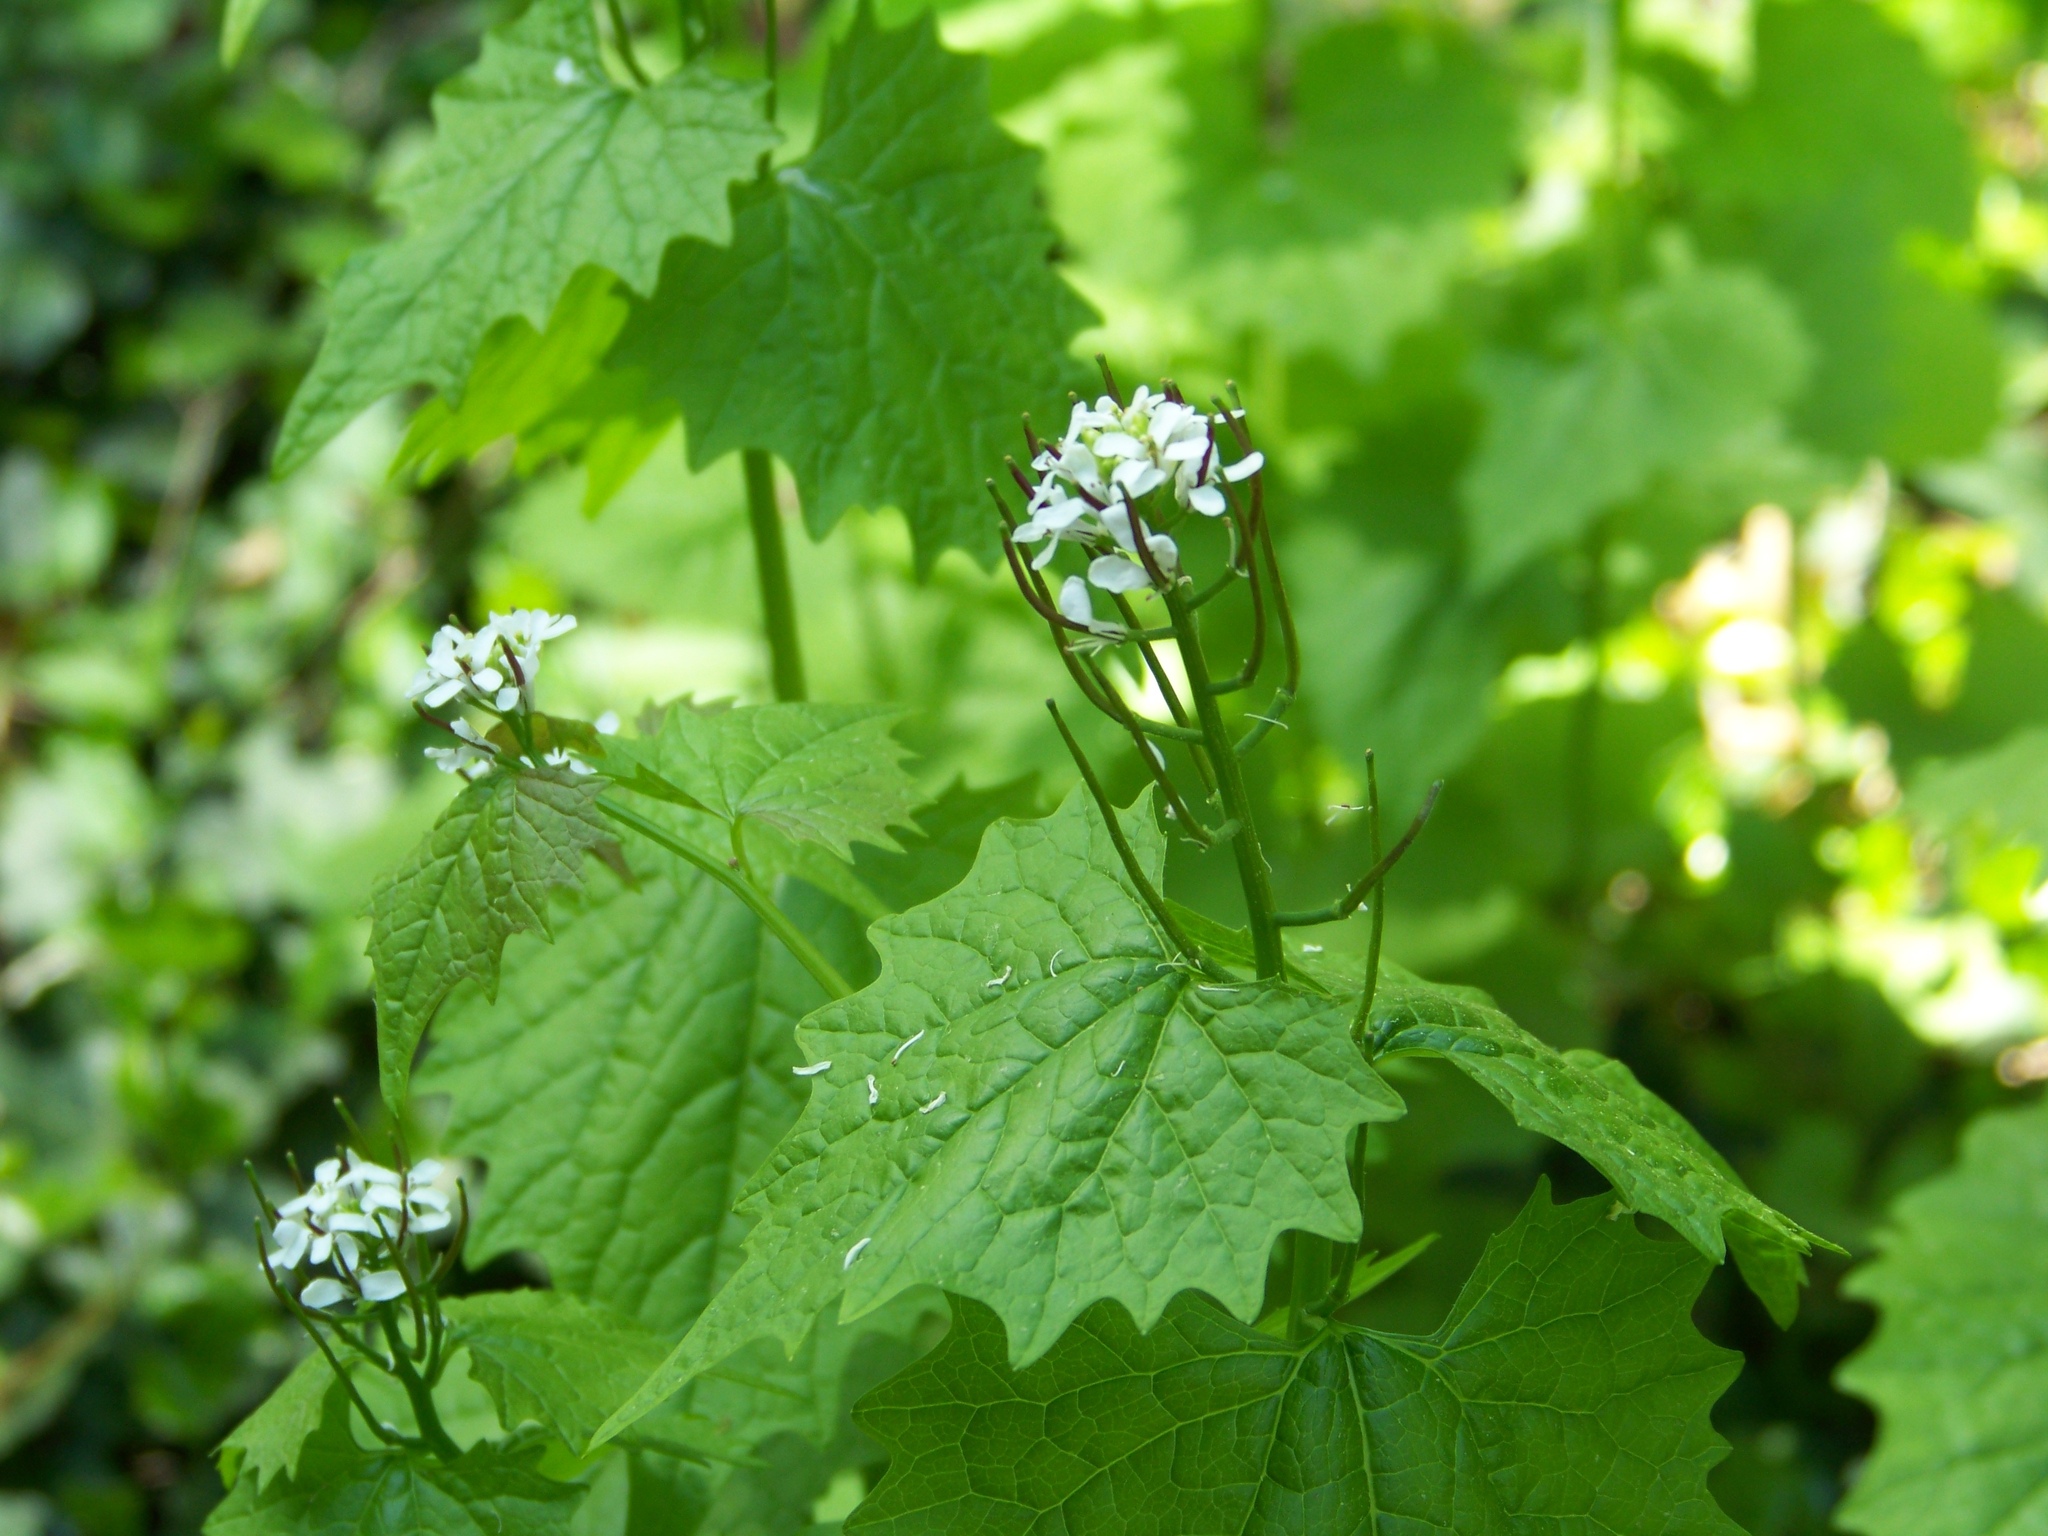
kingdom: Plantae
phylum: Tracheophyta
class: Magnoliopsida
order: Brassicales
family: Brassicaceae
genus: Alliaria
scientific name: Alliaria petiolata
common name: Garlic mustard
